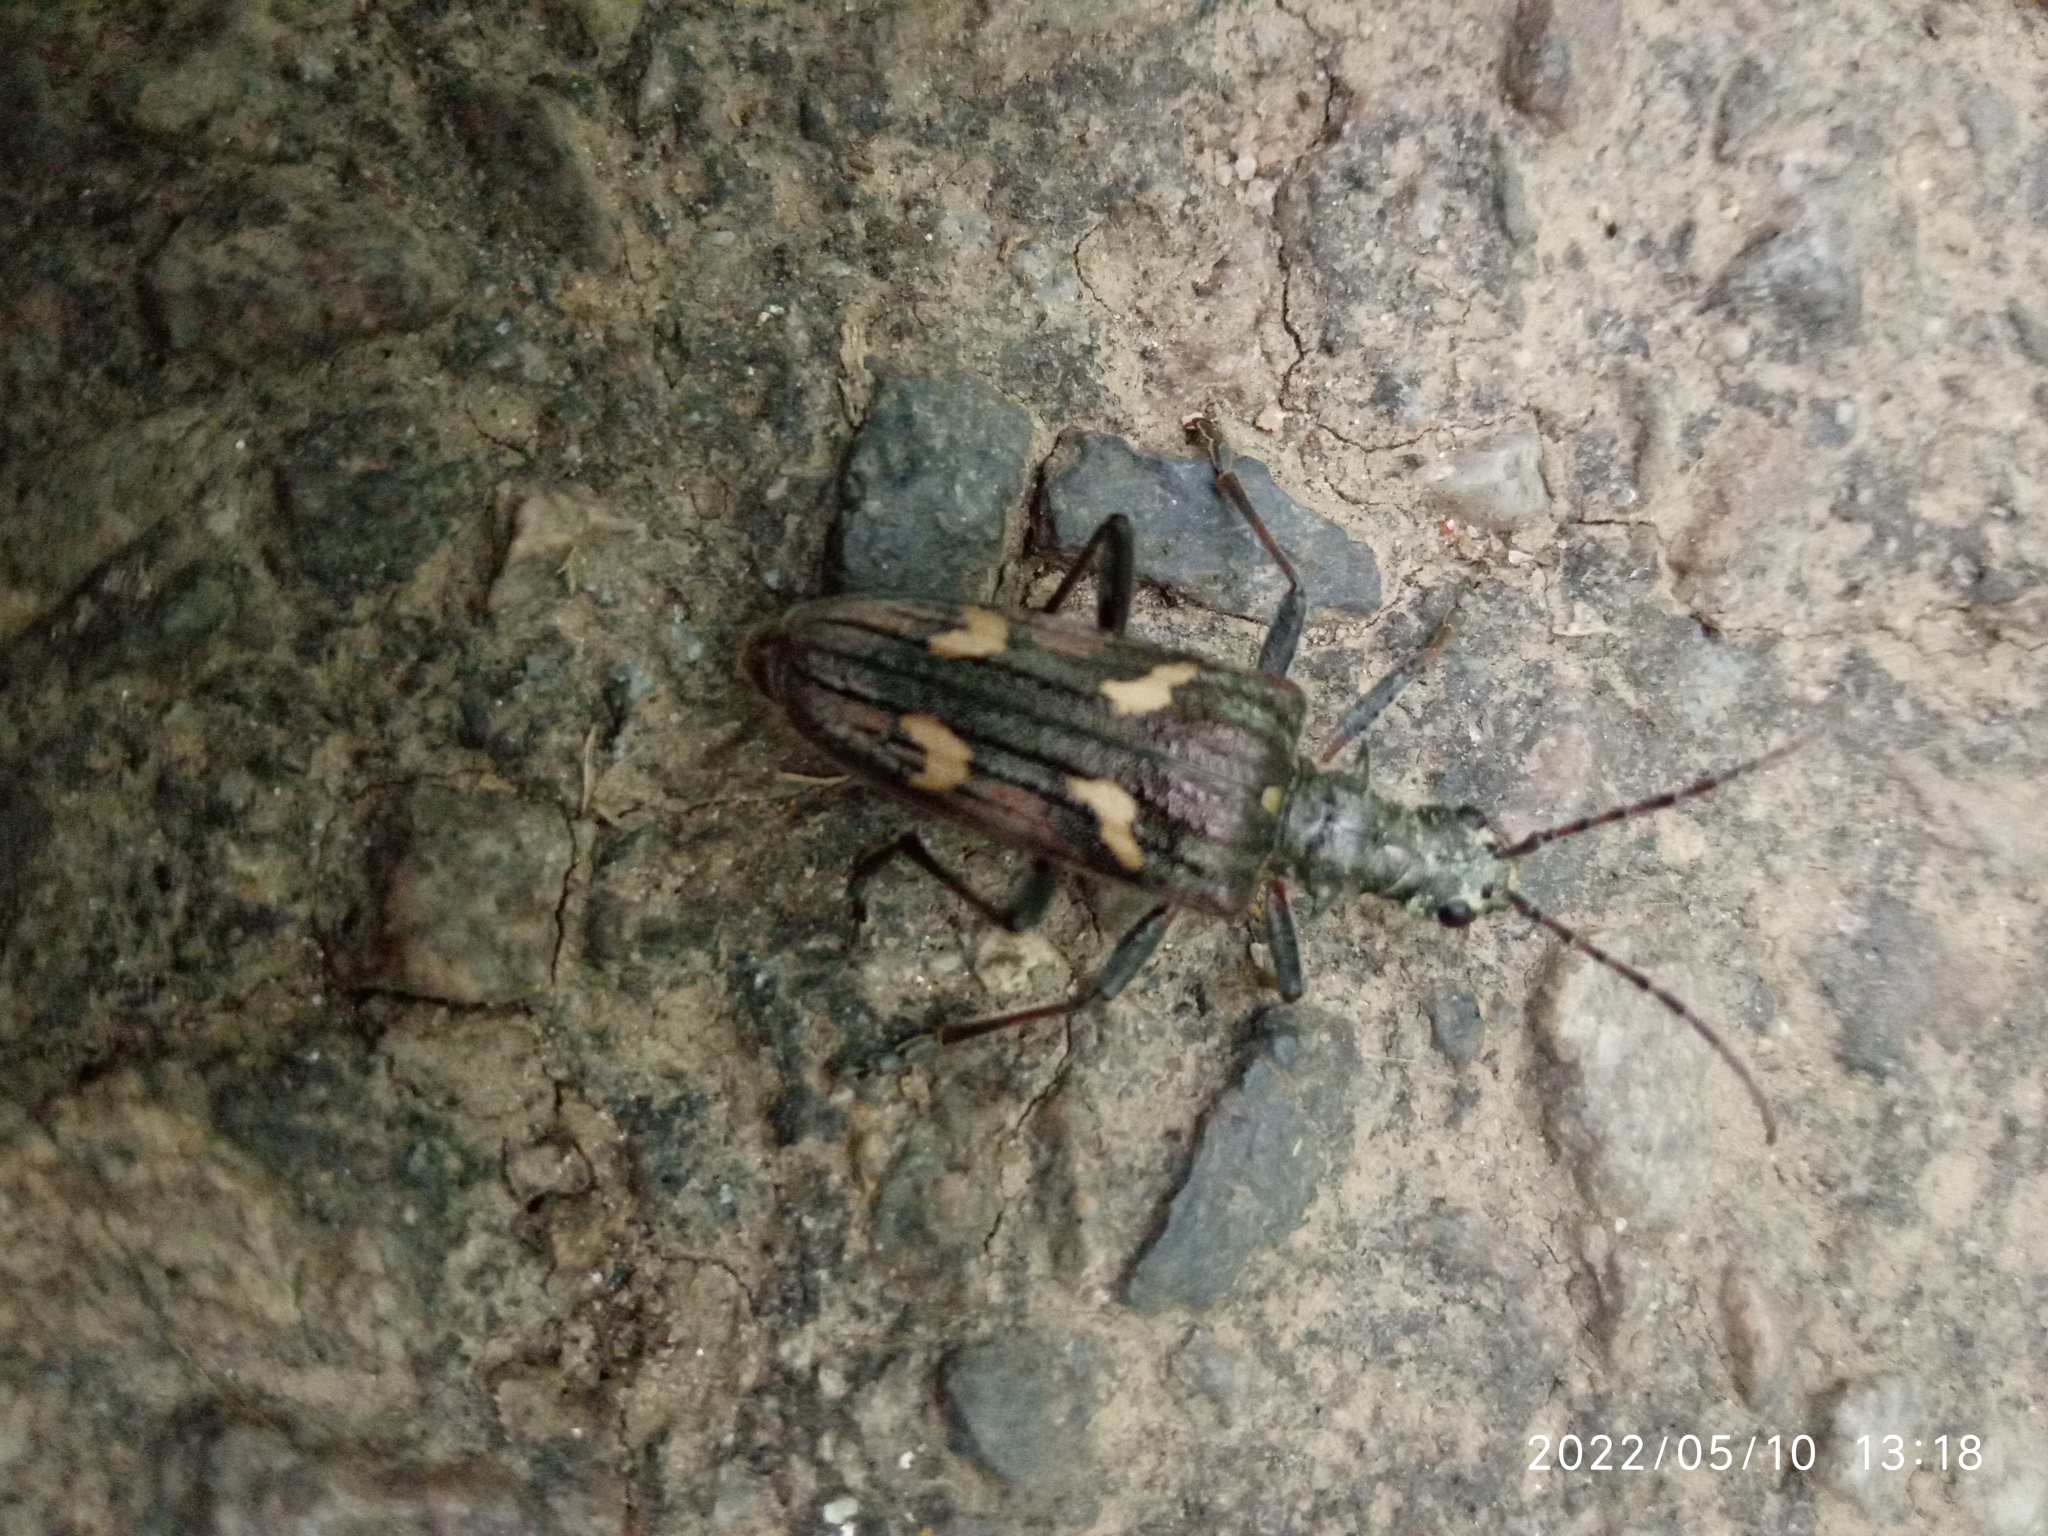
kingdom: Animalia
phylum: Arthropoda
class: Insecta
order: Coleoptera
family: Cerambycidae
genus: Rhagium
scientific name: Rhagium bifasciatum
